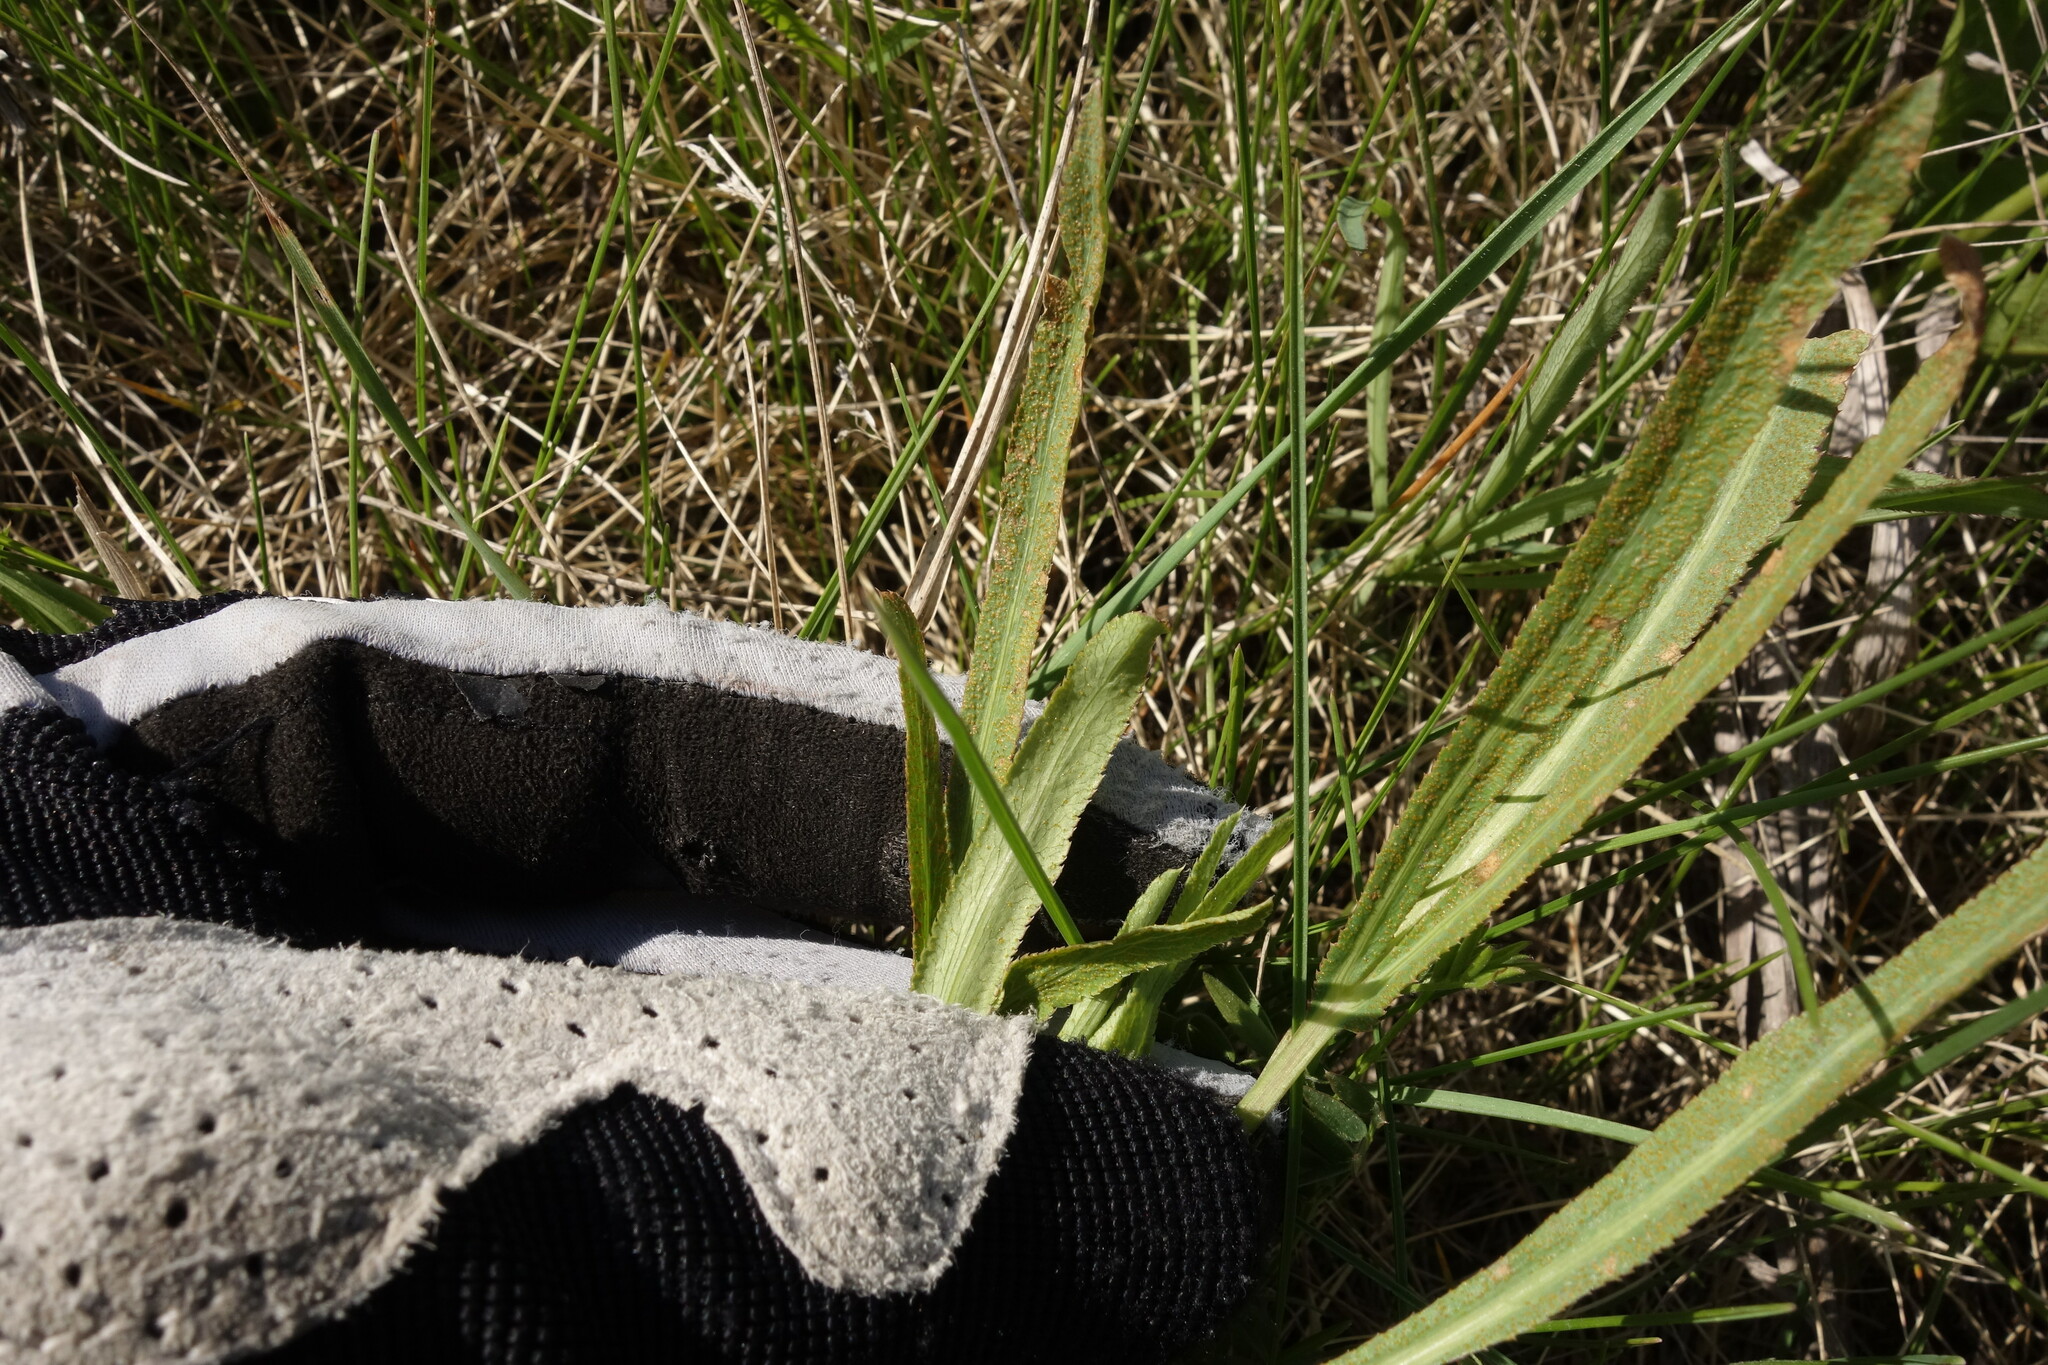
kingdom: Fungi
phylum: Basidiomycota
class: Pucciniomycetes
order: Pucciniales
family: Pucciniaceae
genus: Puccinia
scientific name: Puccinia sii-falcariae
